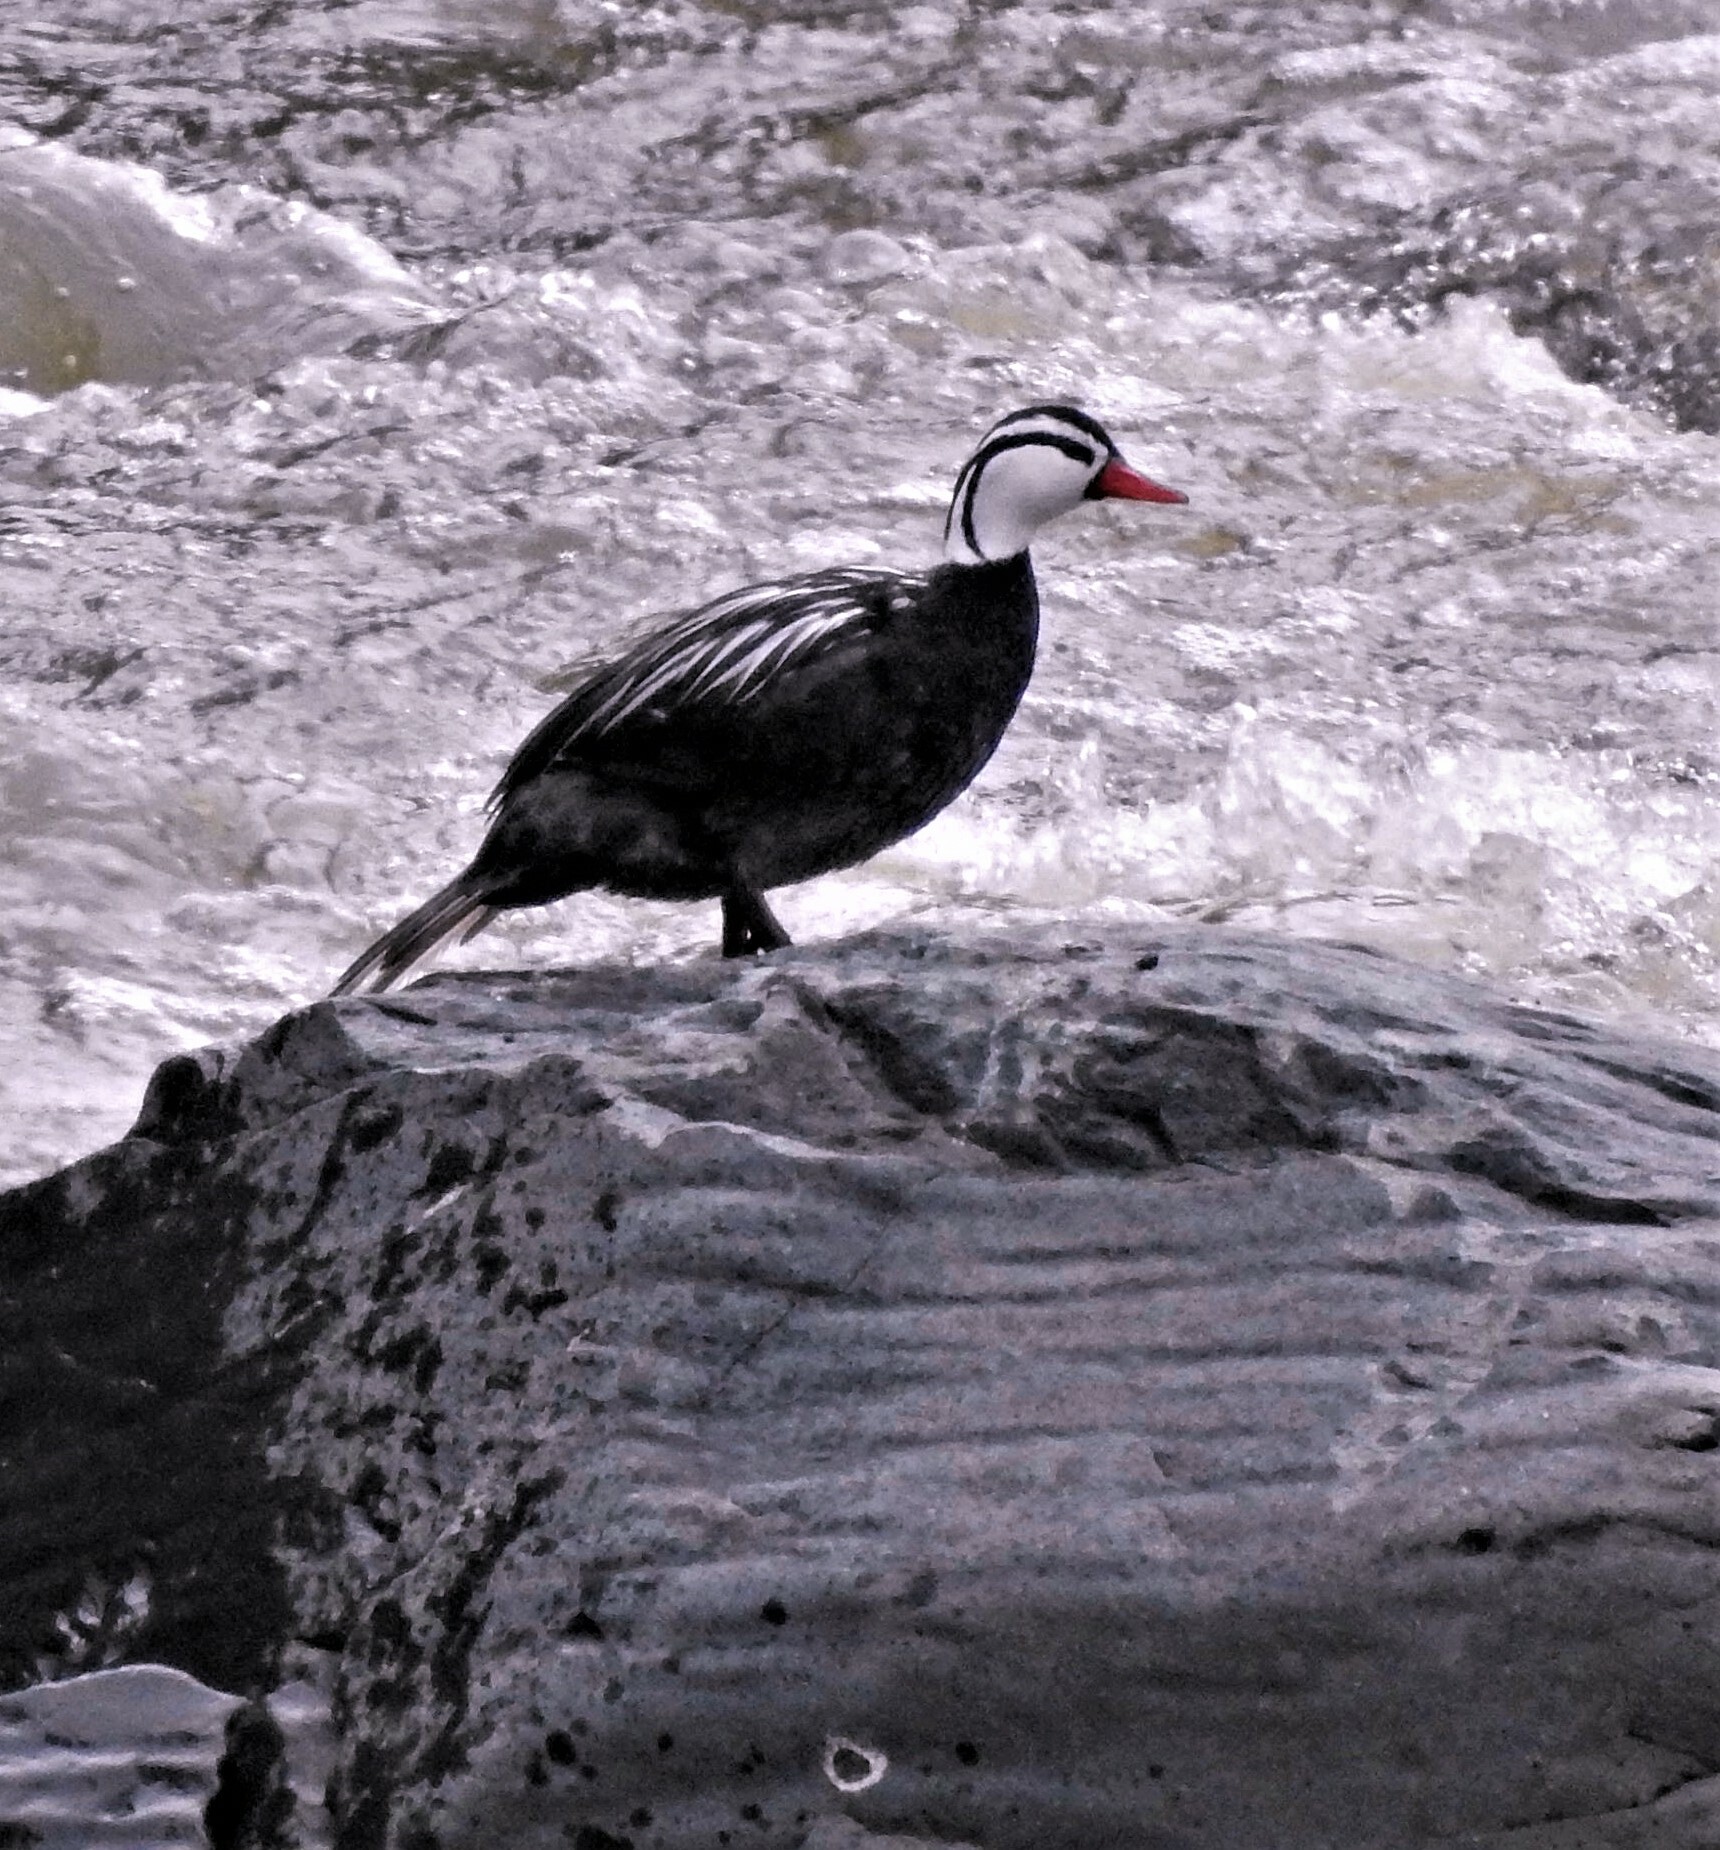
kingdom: Animalia
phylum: Chordata
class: Aves
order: Anseriformes
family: Anatidae
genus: Merganetta
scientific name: Merganetta armata
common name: Torrent duck
